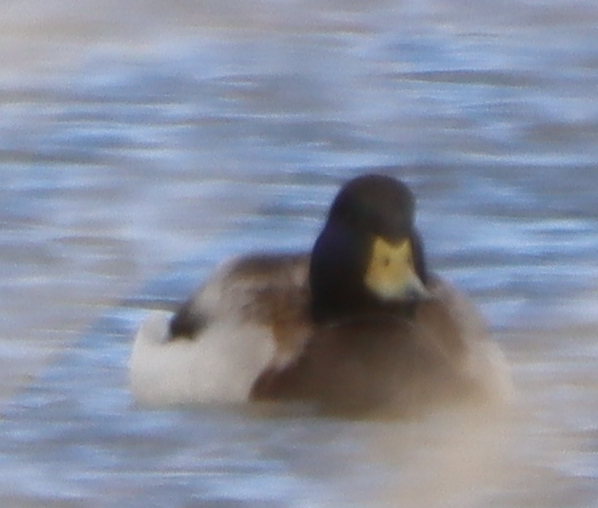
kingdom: Animalia
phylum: Chordata
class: Aves
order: Anseriformes
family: Anatidae
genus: Anas
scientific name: Anas platyrhynchos
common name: Mallard
